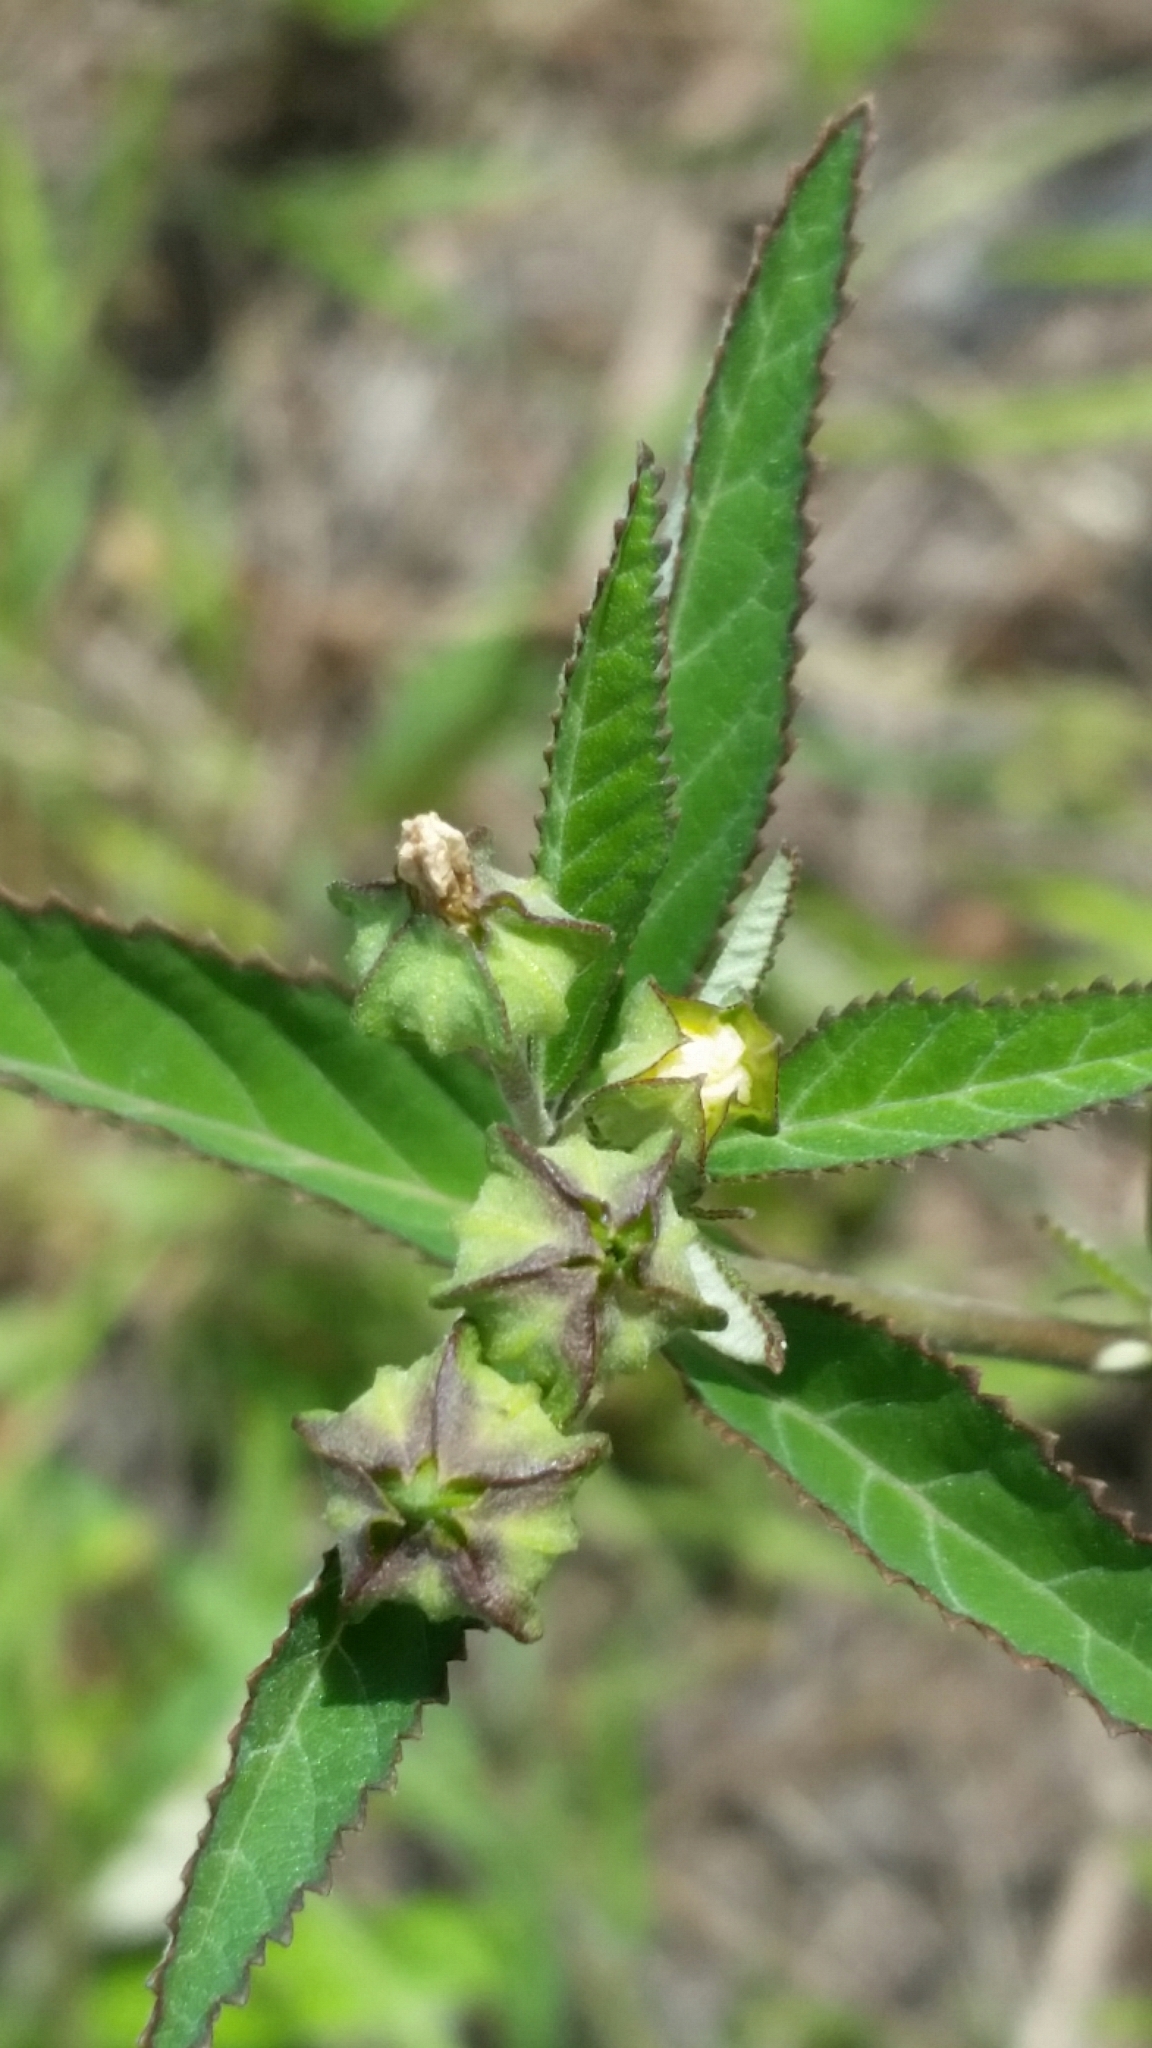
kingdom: Plantae
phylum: Tracheophyta
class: Magnoliopsida
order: Malvales
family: Malvaceae
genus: Sida
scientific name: Sida rhombifolia
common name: Queensland-hemp
